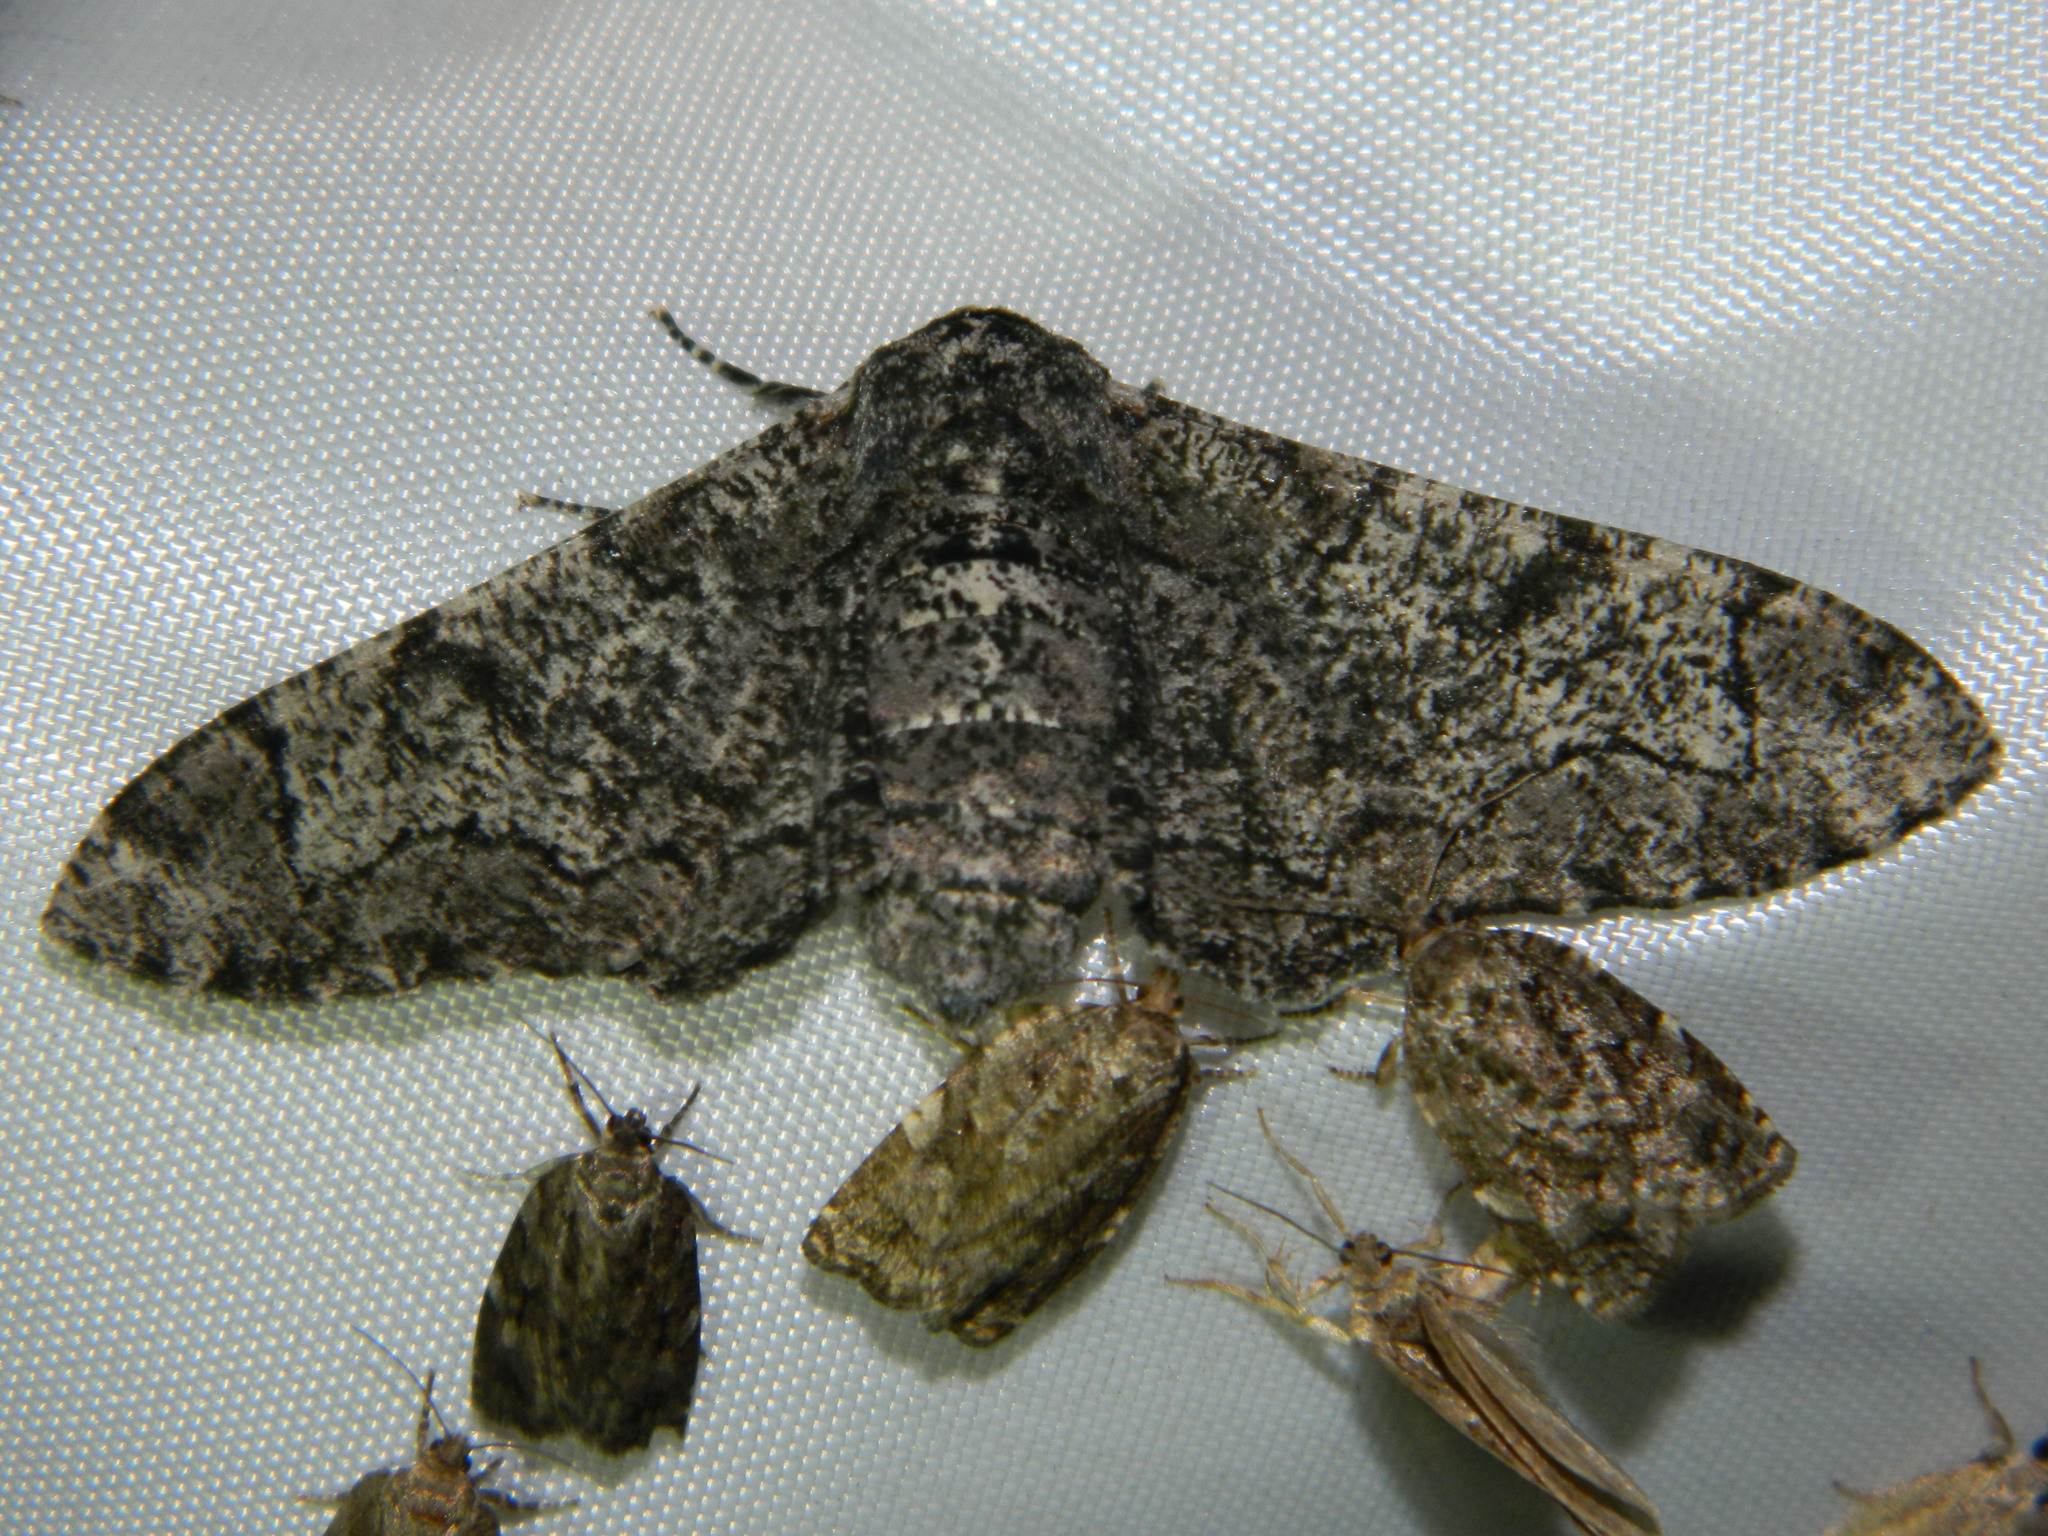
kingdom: Animalia
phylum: Arthropoda
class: Insecta
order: Lepidoptera
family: Geometridae
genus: Biston
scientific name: Biston betularia
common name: Peppered moth
